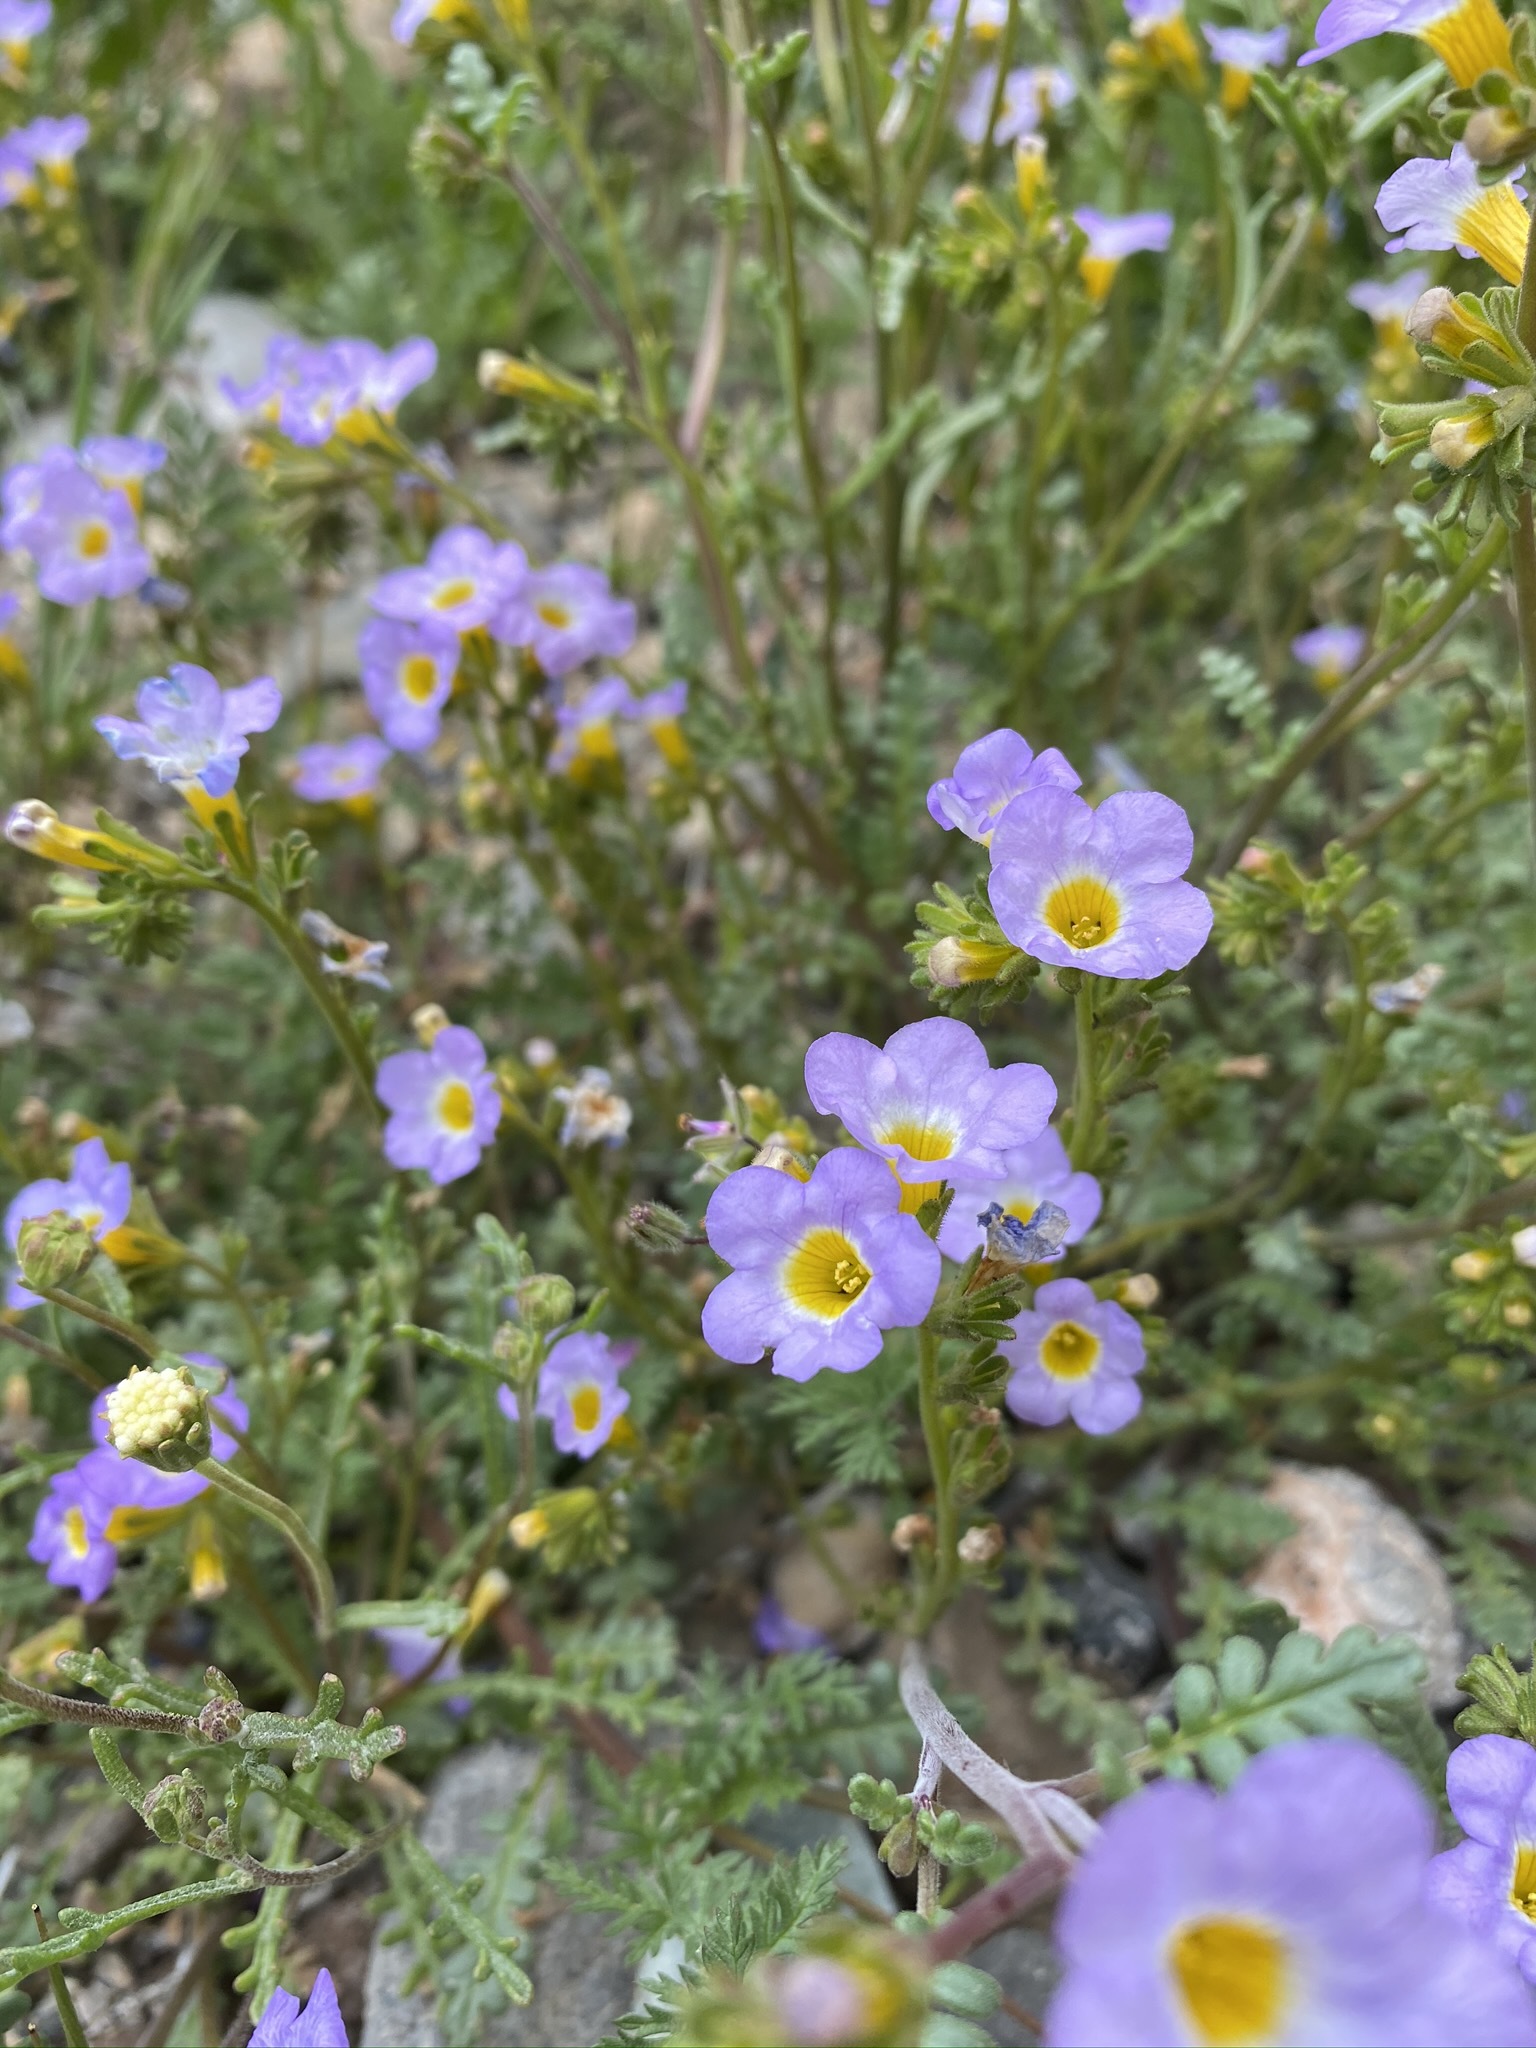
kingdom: Plantae
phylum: Tracheophyta
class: Magnoliopsida
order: Boraginales
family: Hydrophyllaceae
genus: Phacelia
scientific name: Phacelia fremontii
